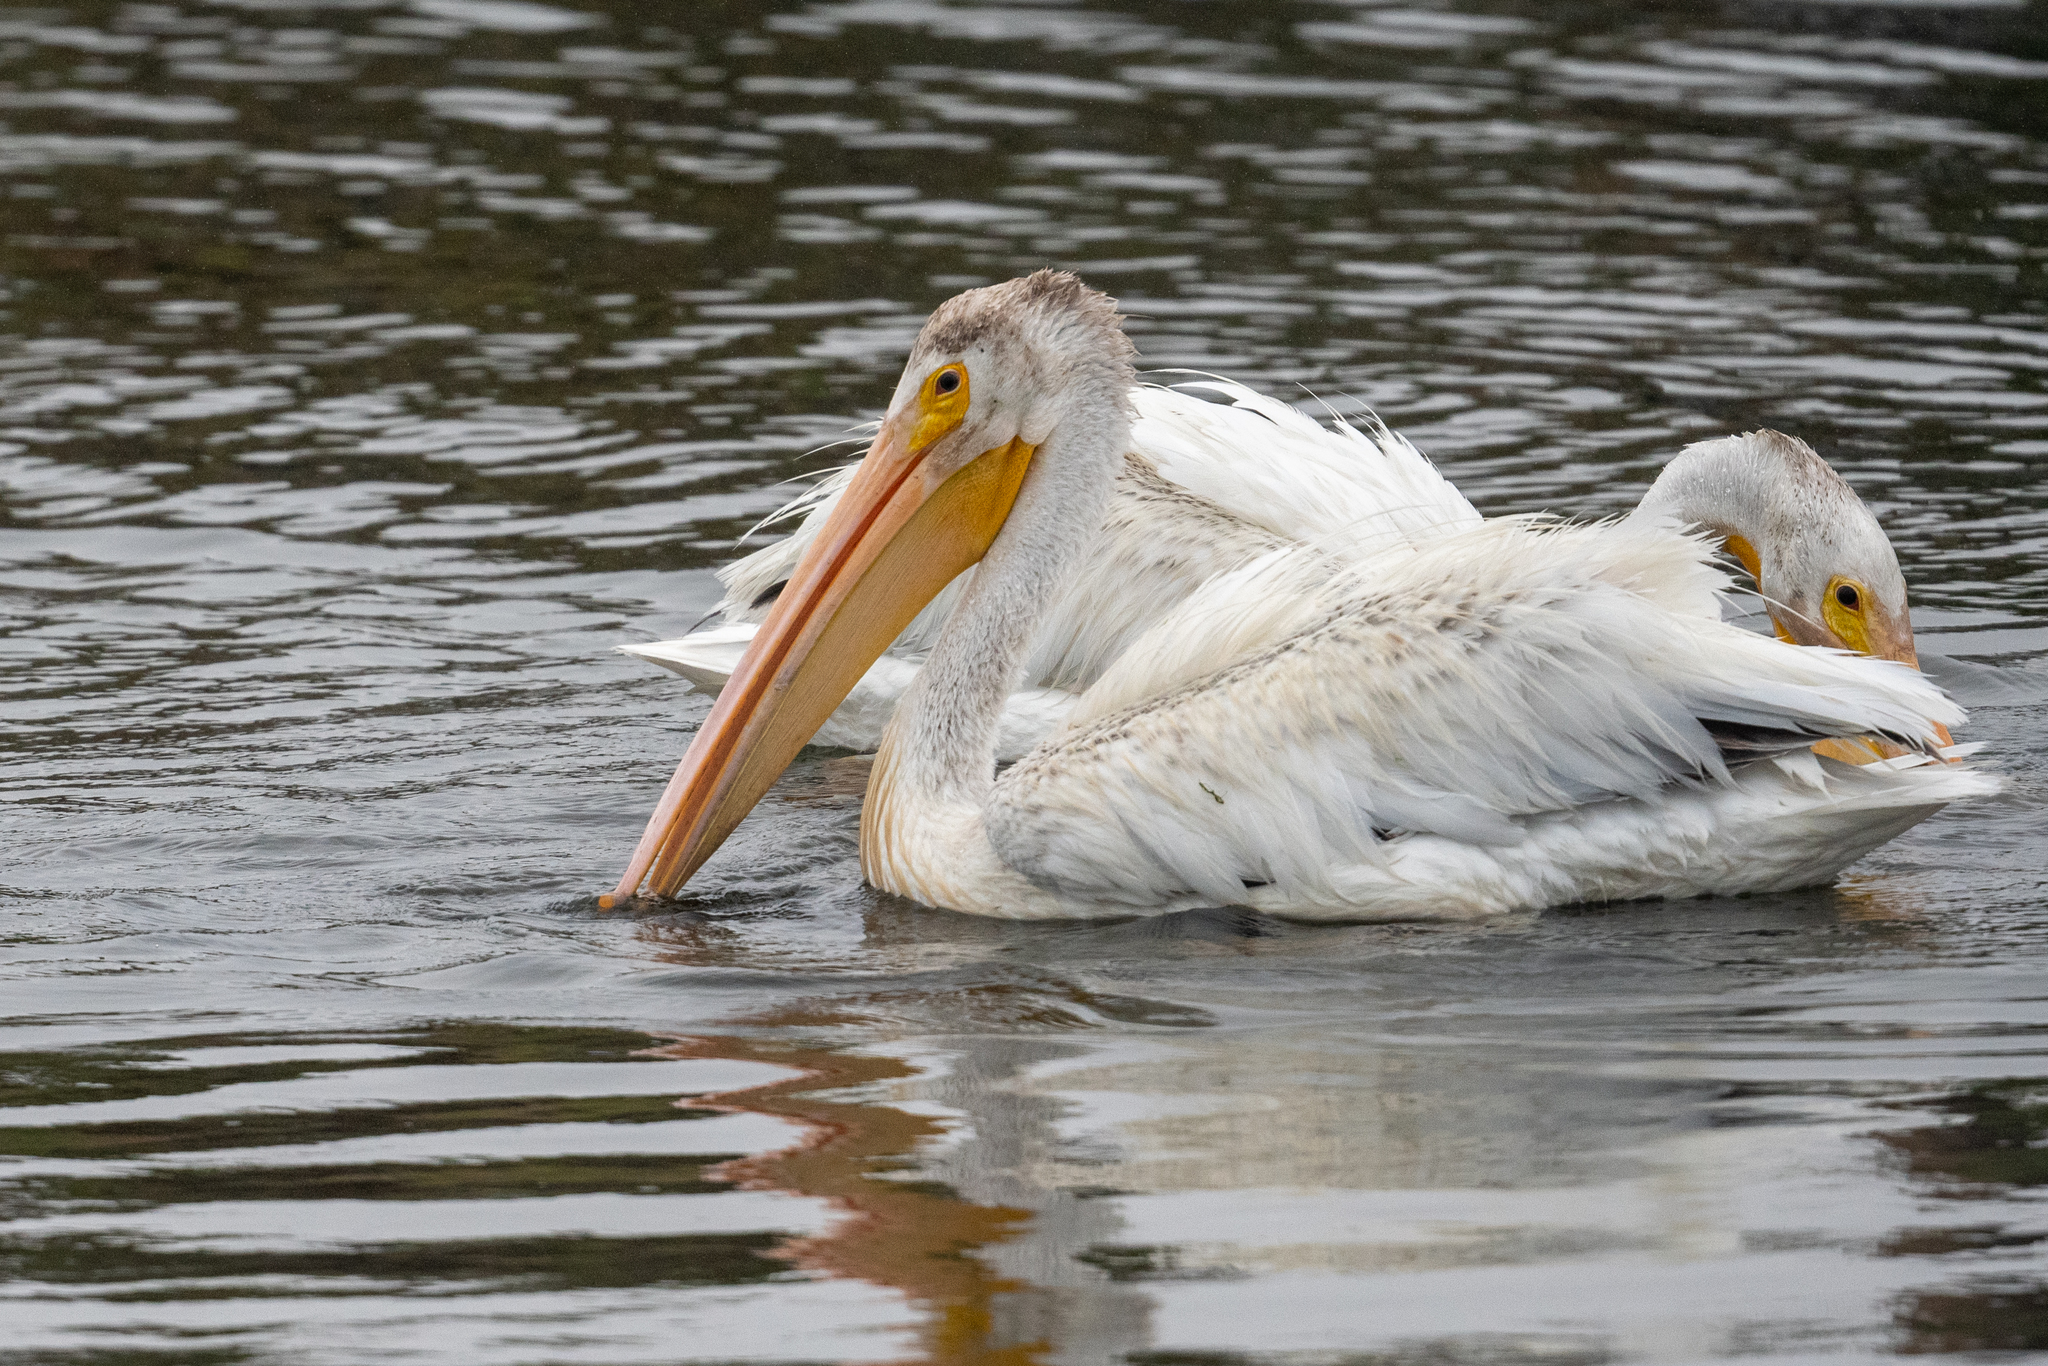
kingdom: Animalia
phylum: Chordata
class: Aves
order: Pelecaniformes
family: Pelecanidae
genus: Pelecanus
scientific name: Pelecanus erythrorhynchos
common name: American white pelican
